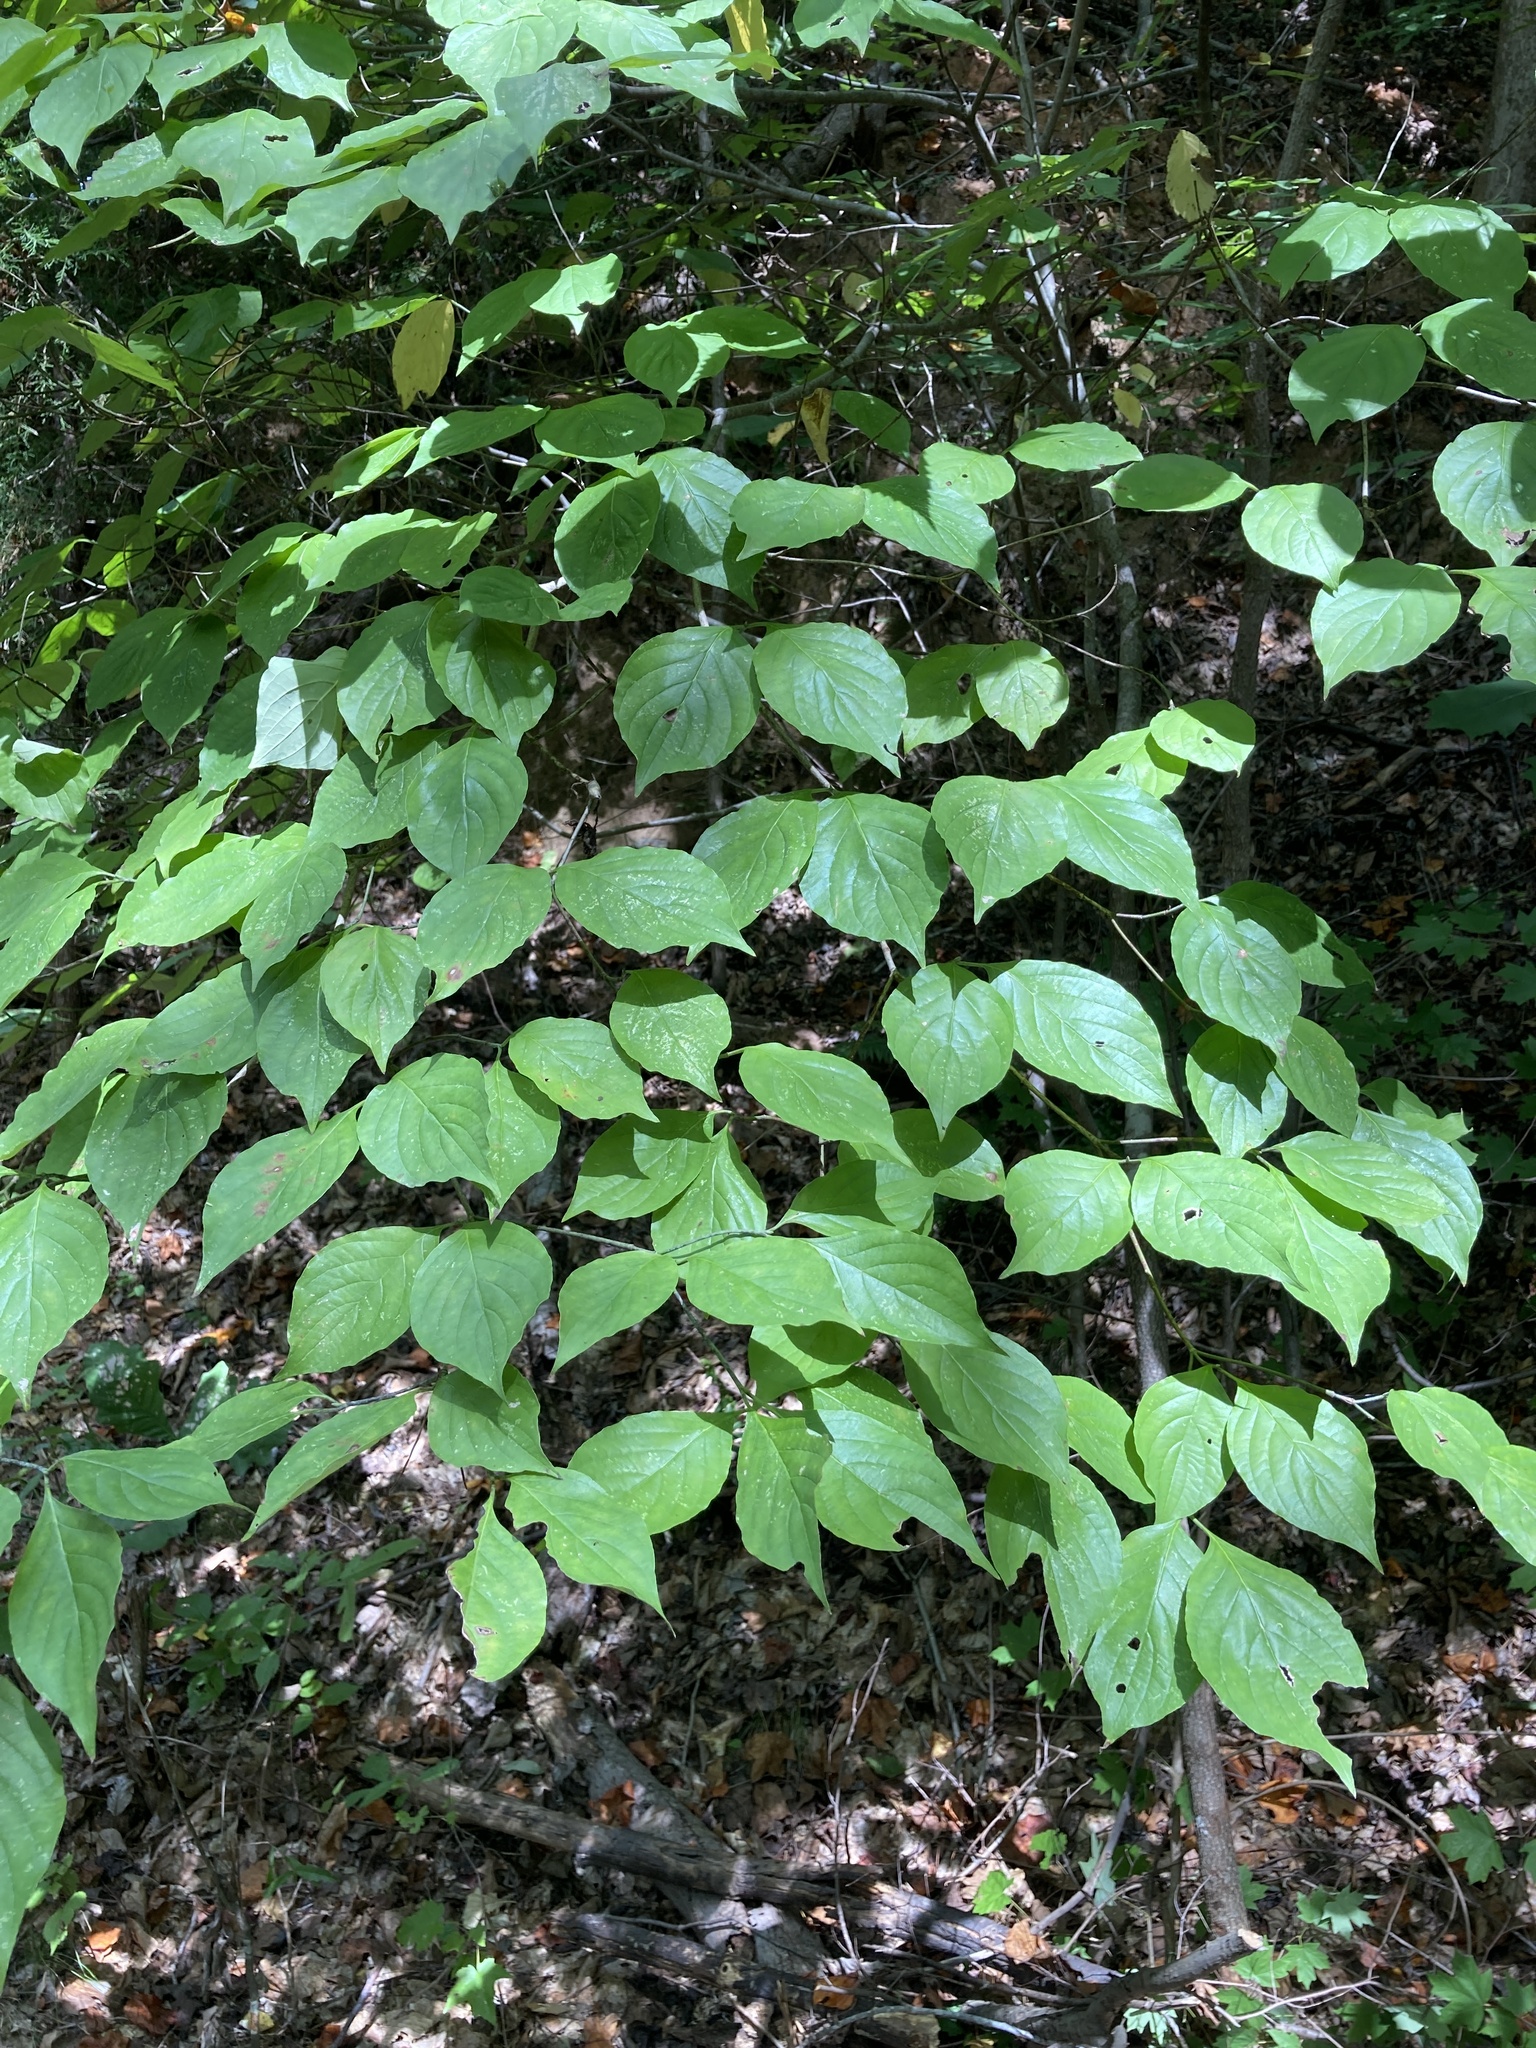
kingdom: Plantae
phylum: Tracheophyta
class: Magnoliopsida
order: Cornales
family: Cornaceae
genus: Cornus
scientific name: Cornus florida
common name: Flowering dogwood
